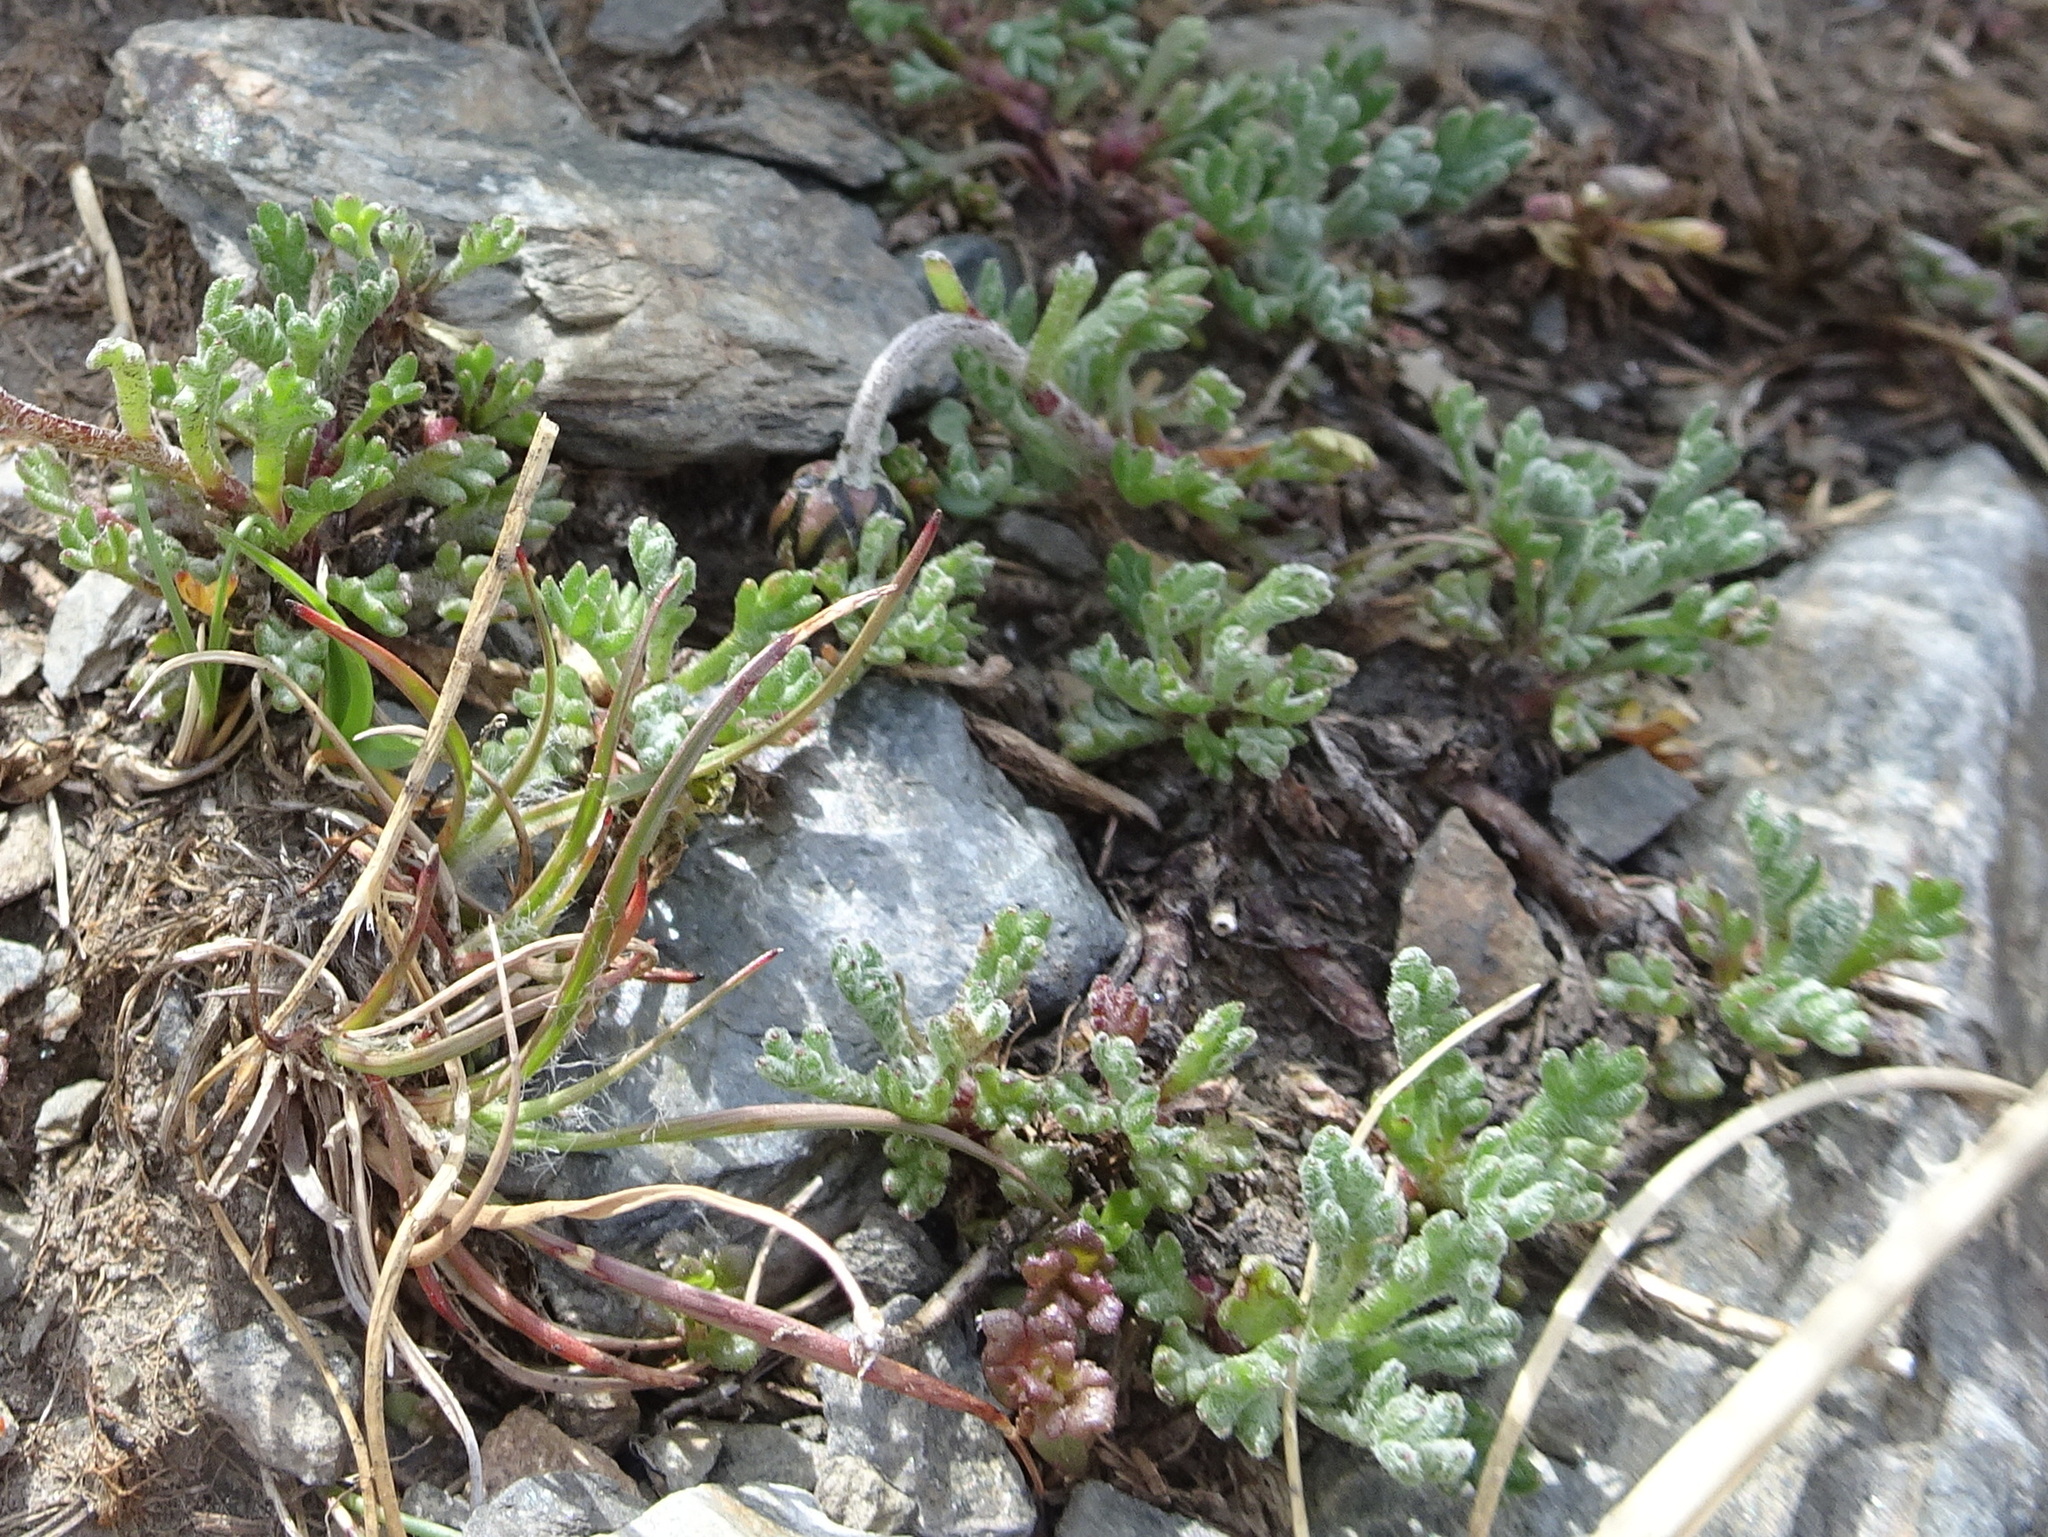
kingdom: Plantae
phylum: Tracheophyta
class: Magnoliopsida
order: Asterales
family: Asteraceae
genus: Leucanthemopsis
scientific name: Leucanthemopsis alpina
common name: Alpine moon daisy
